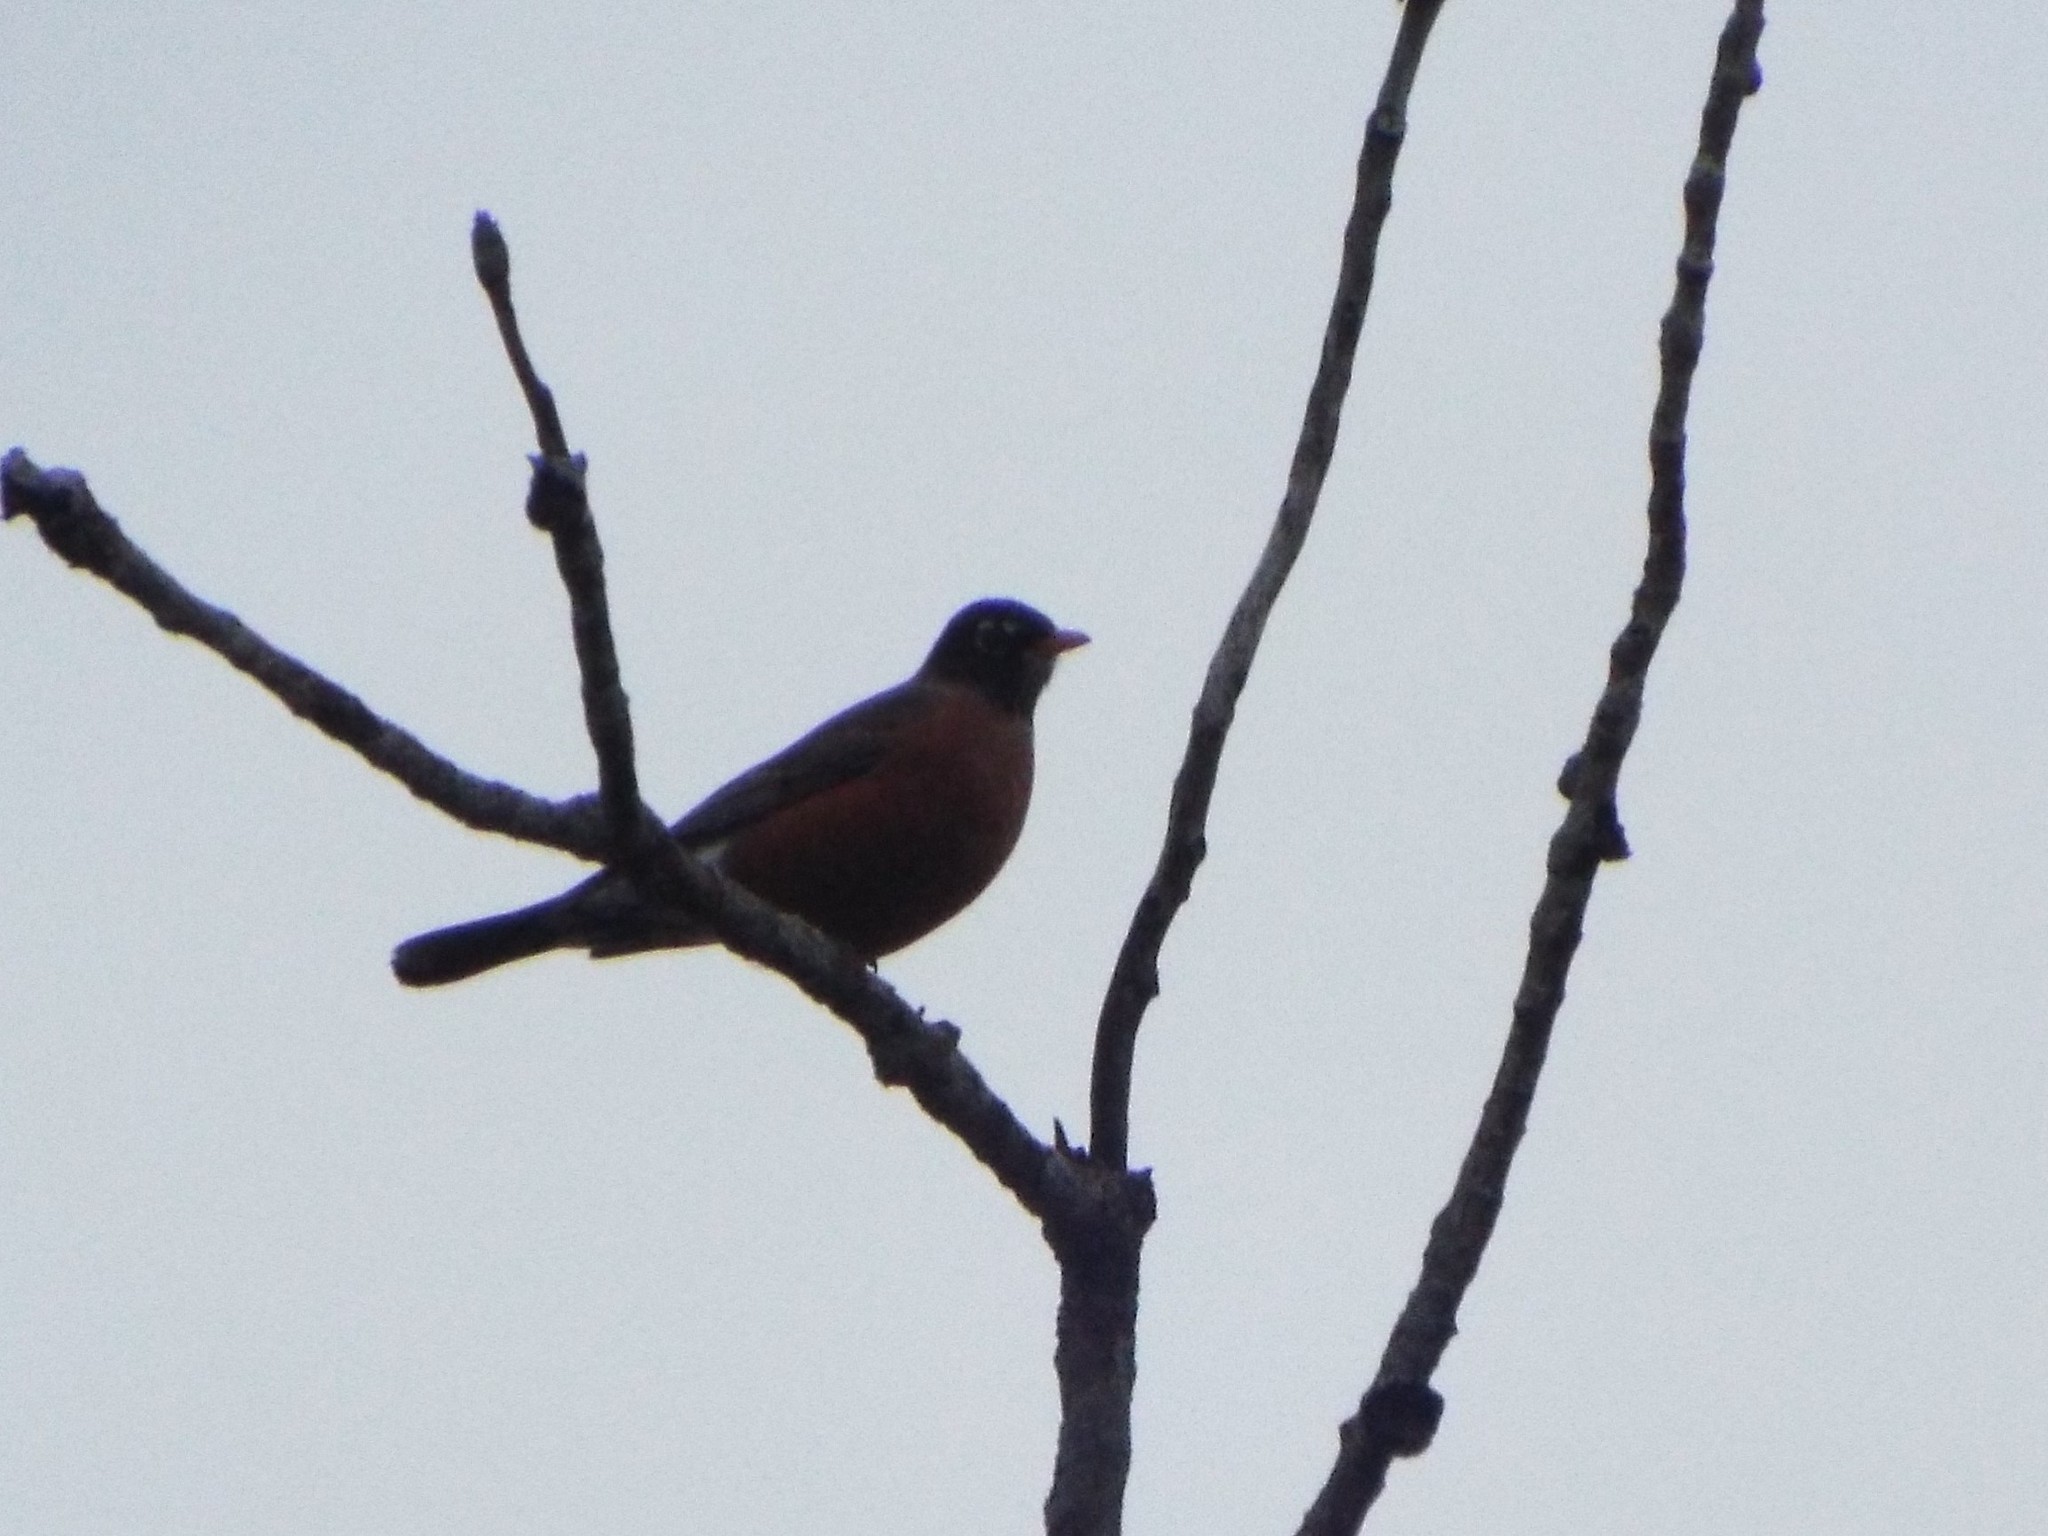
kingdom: Animalia
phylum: Chordata
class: Aves
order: Passeriformes
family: Turdidae
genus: Turdus
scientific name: Turdus migratorius
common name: American robin
